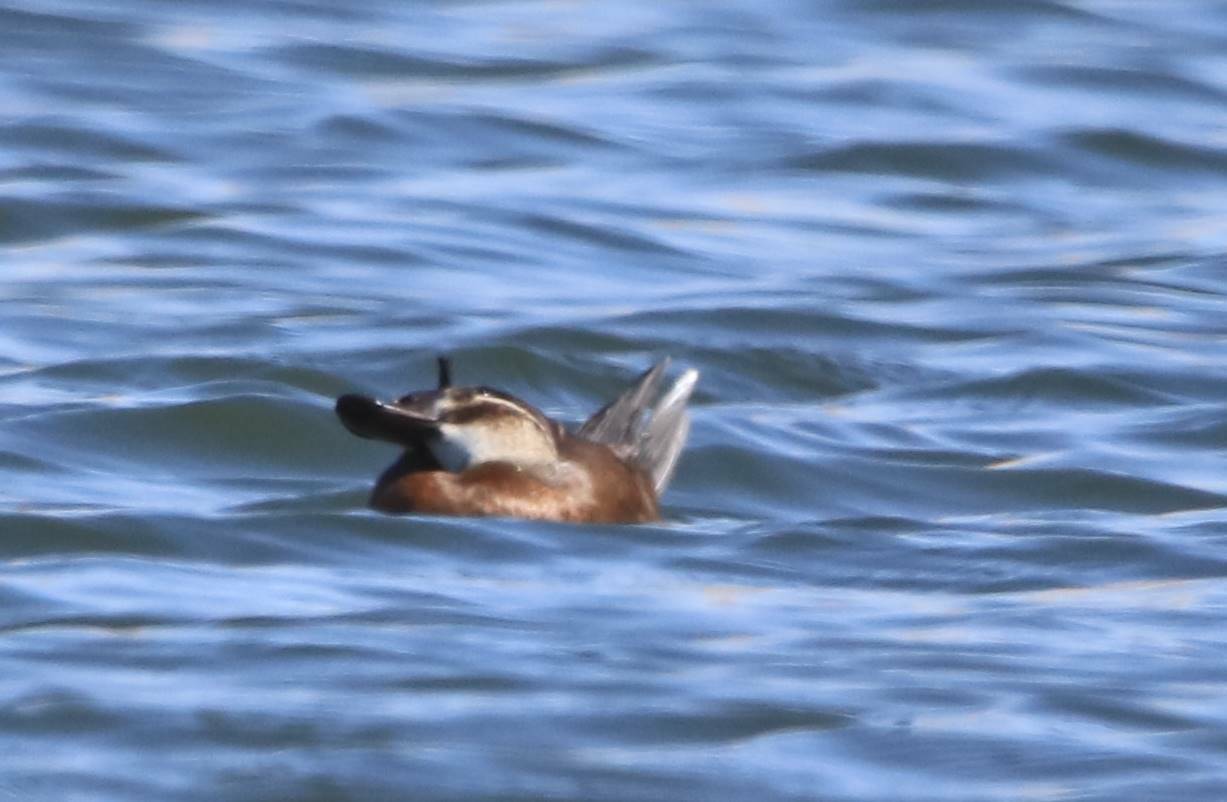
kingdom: Animalia
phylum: Chordata
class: Aves
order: Anseriformes
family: Anatidae
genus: Oxyura
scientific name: Oxyura leucocephala
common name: White-headed duck
